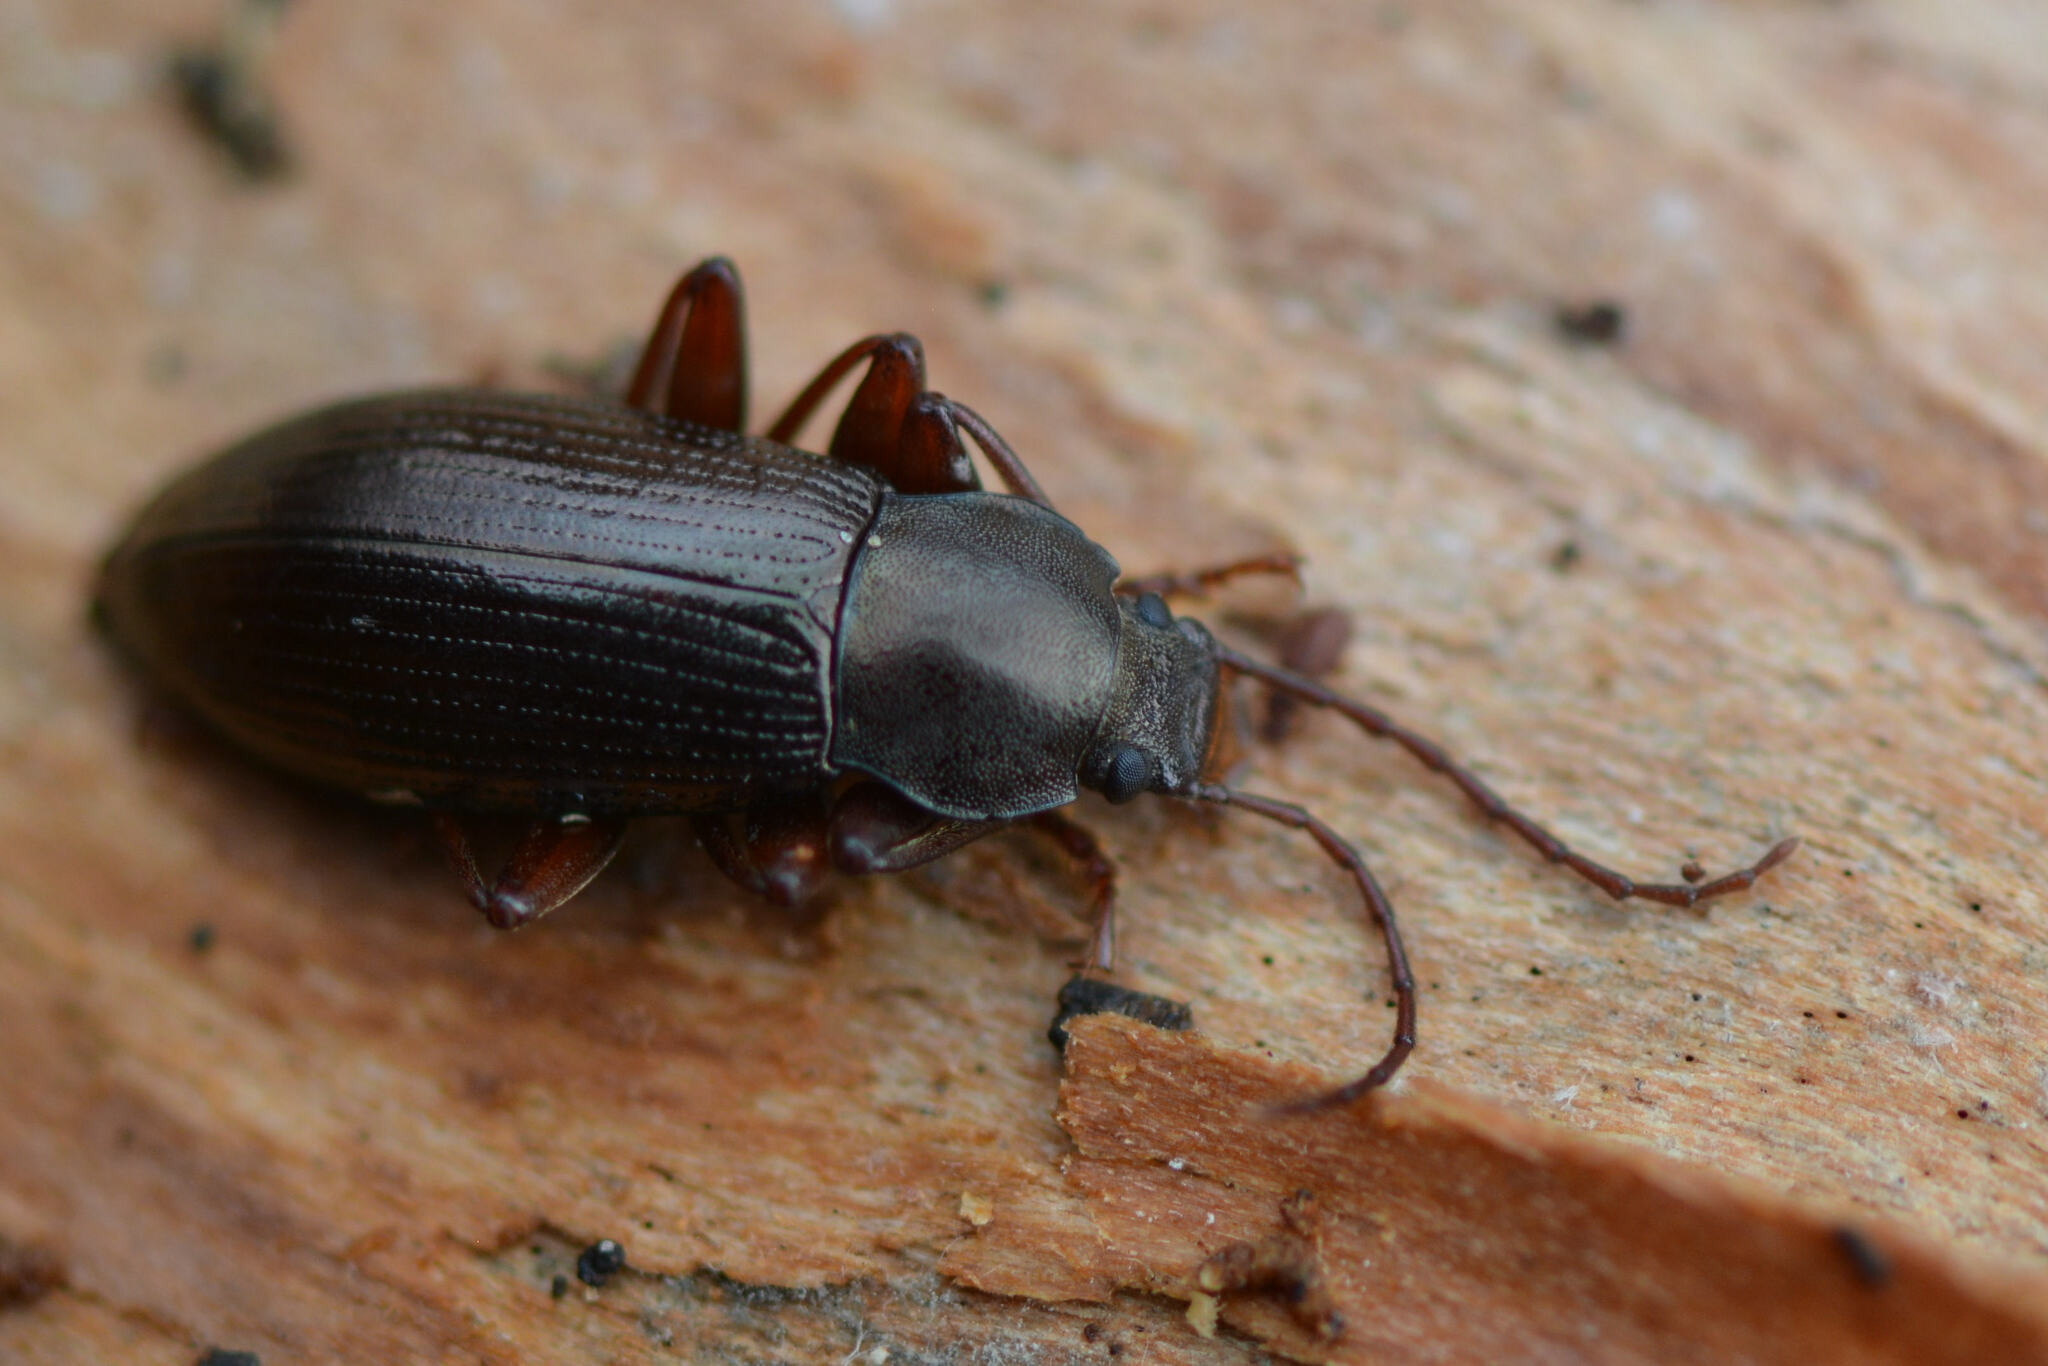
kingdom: Animalia
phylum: Arthropoda
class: Insecta
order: Coleoptera
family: Tenebrionidae
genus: Stenomax
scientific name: Stenomax aeneus
